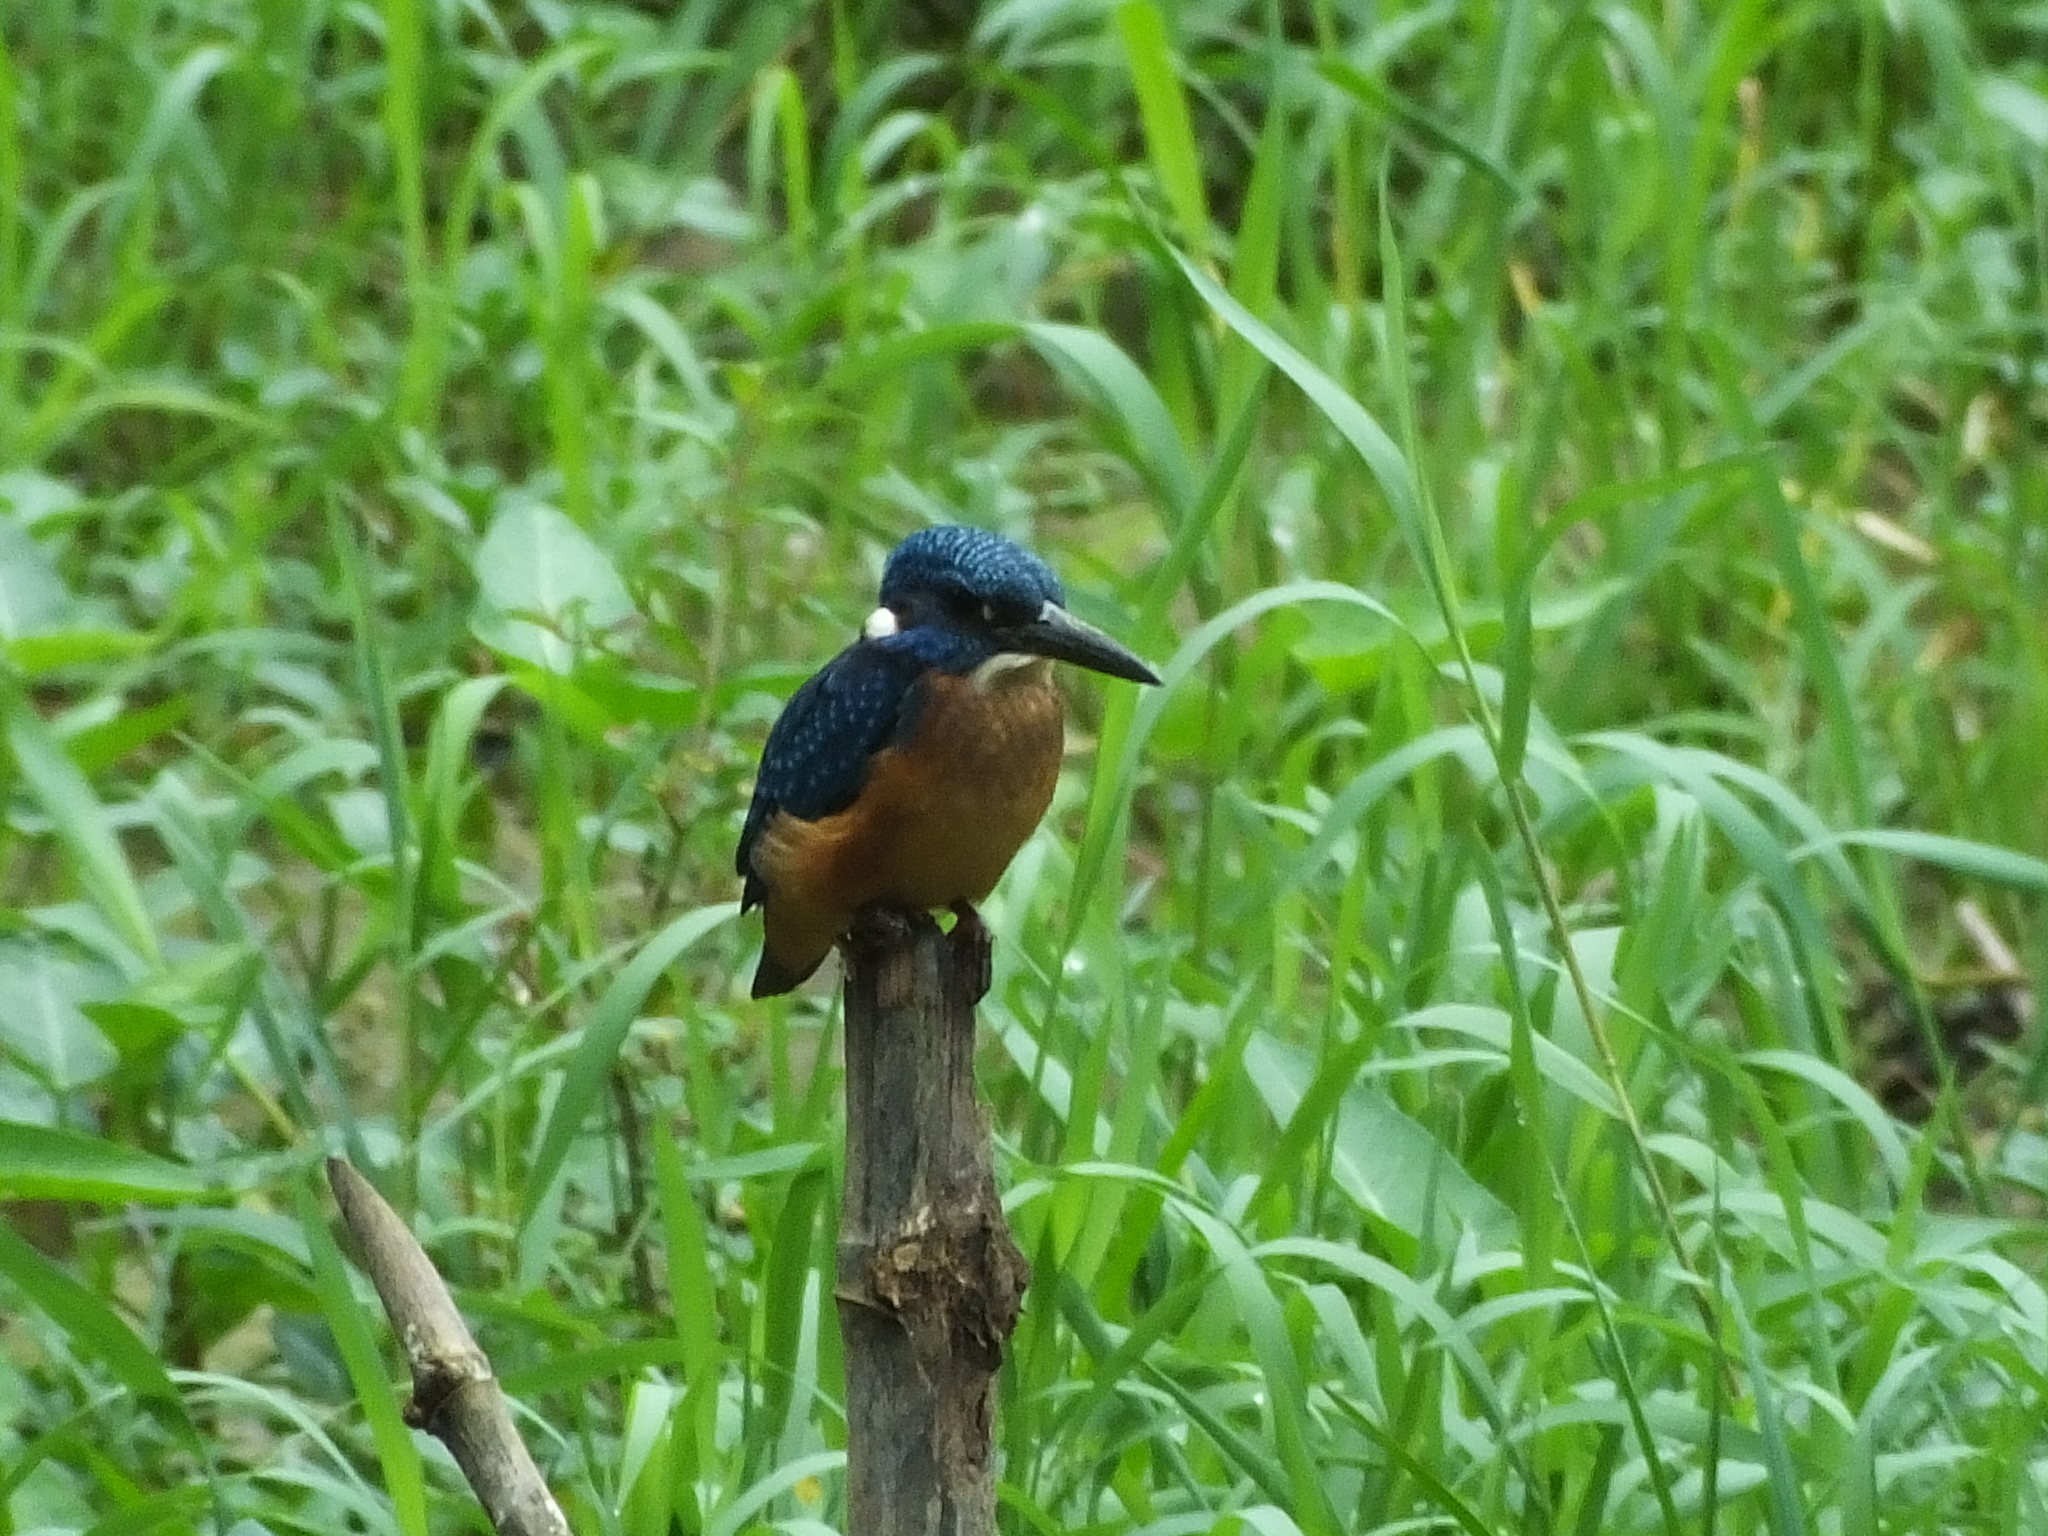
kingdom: Animalia
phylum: Chordata
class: Aves
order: Coraciiformes
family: Alcedinidae
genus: Alcedo
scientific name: Alcedo atthis
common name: Common kingfisher
